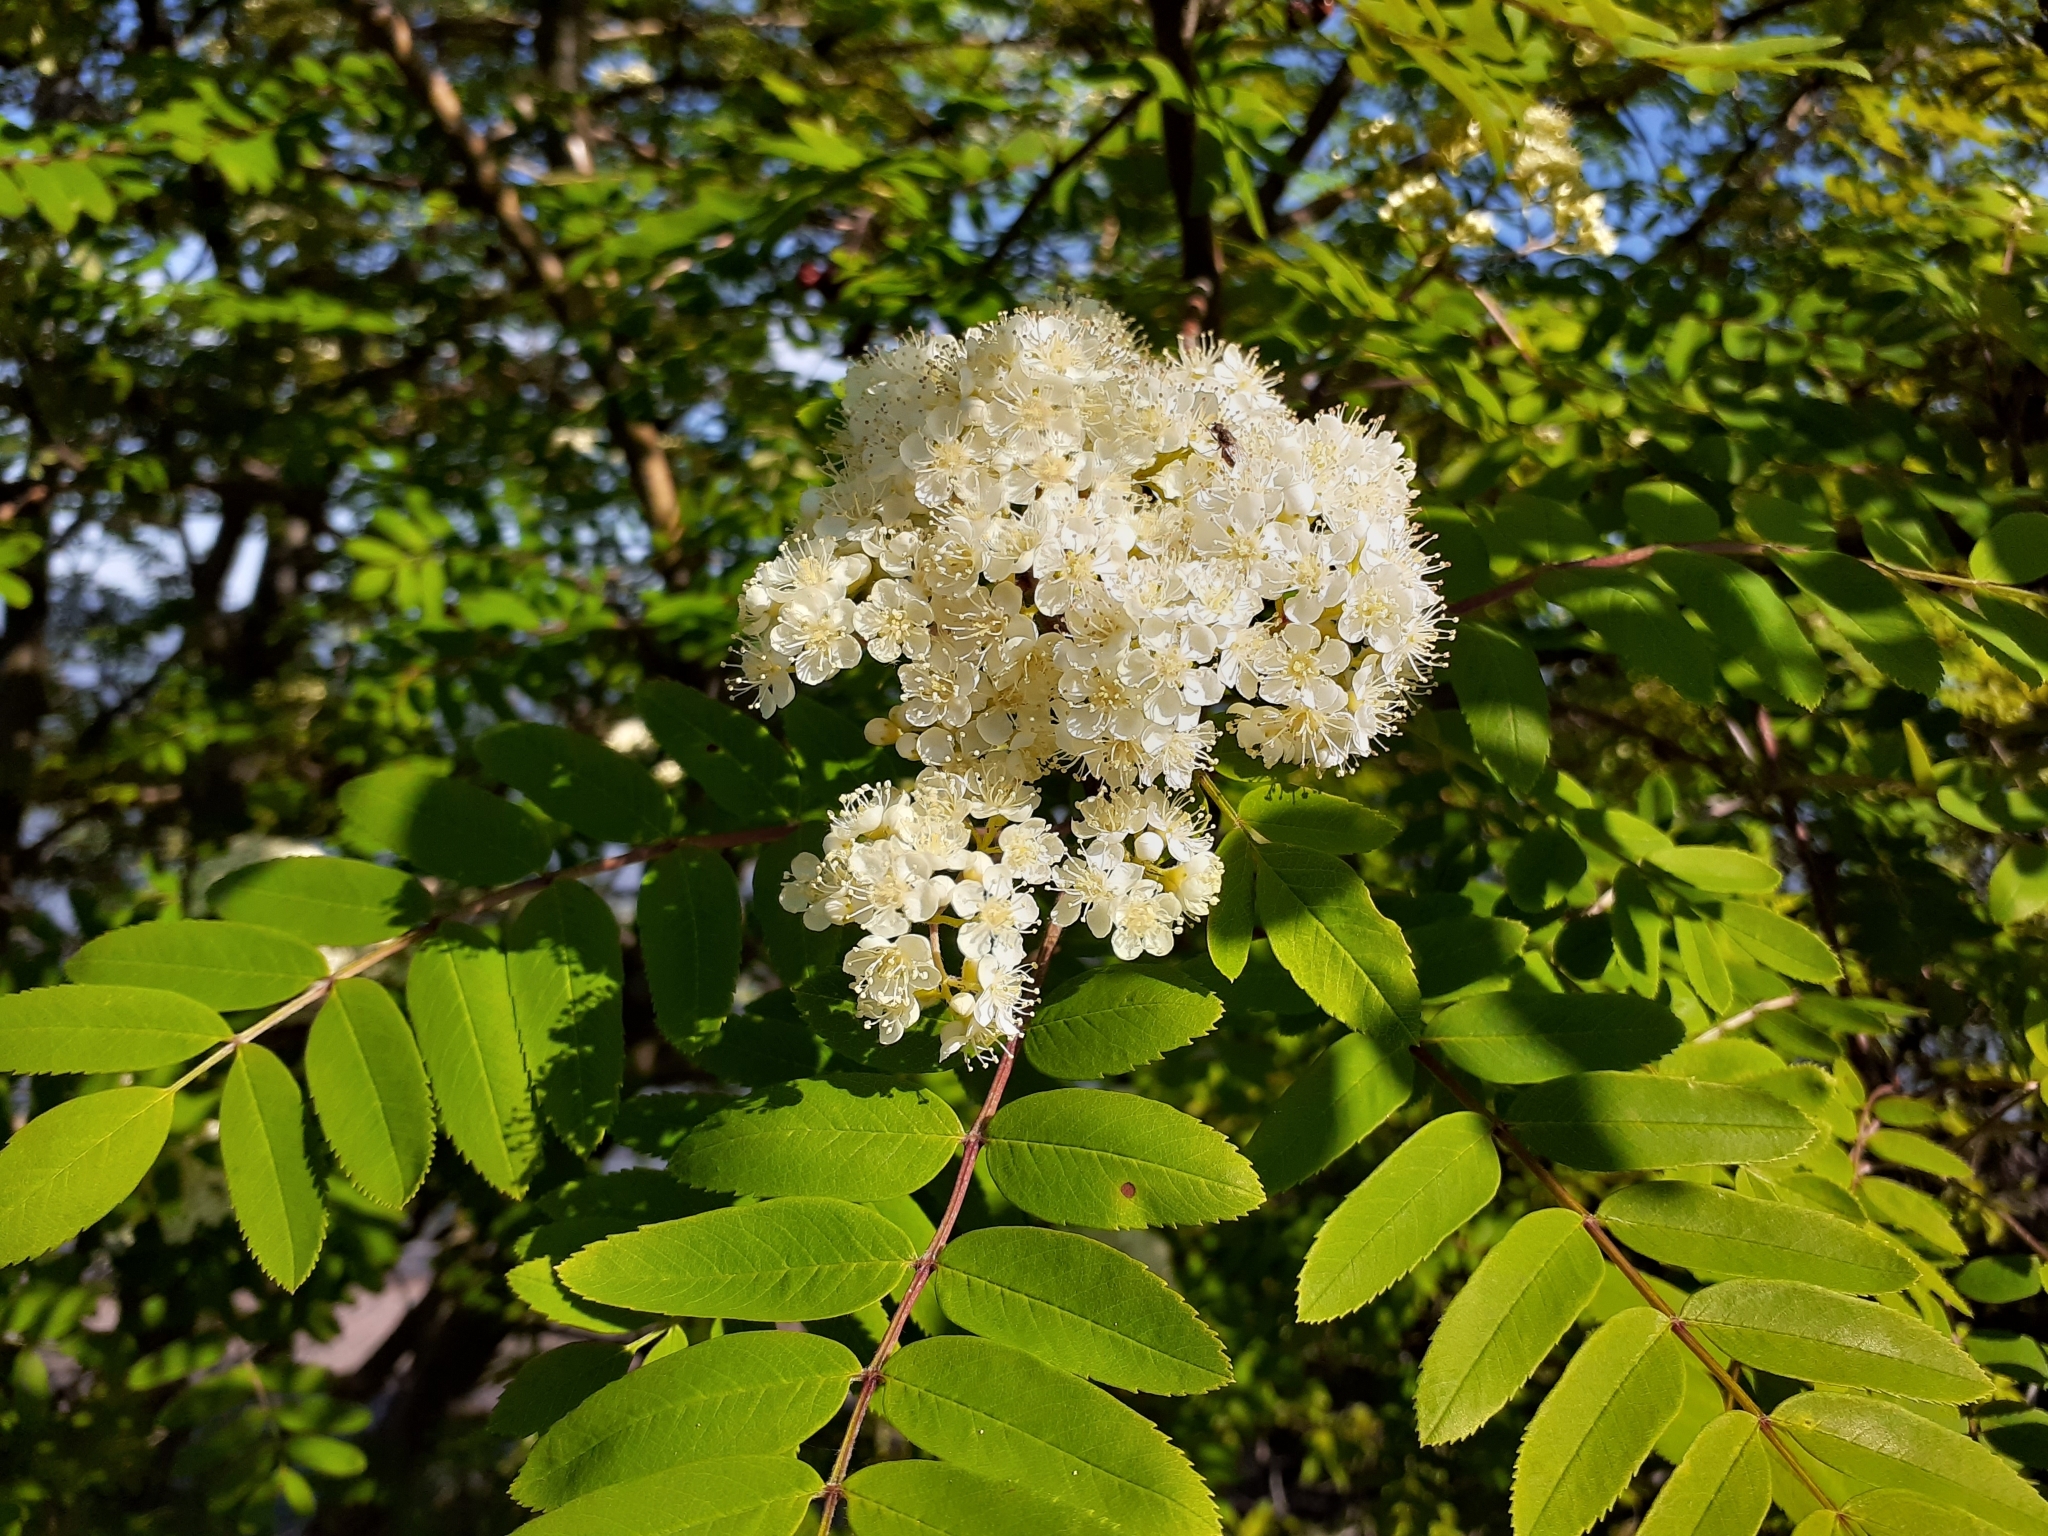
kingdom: Plantae
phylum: Tracheophyta
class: Magnoliopsida
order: Rosales
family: Rosaceae
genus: Sorbus
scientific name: Sorbus decora
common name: Northern mountain-ash
